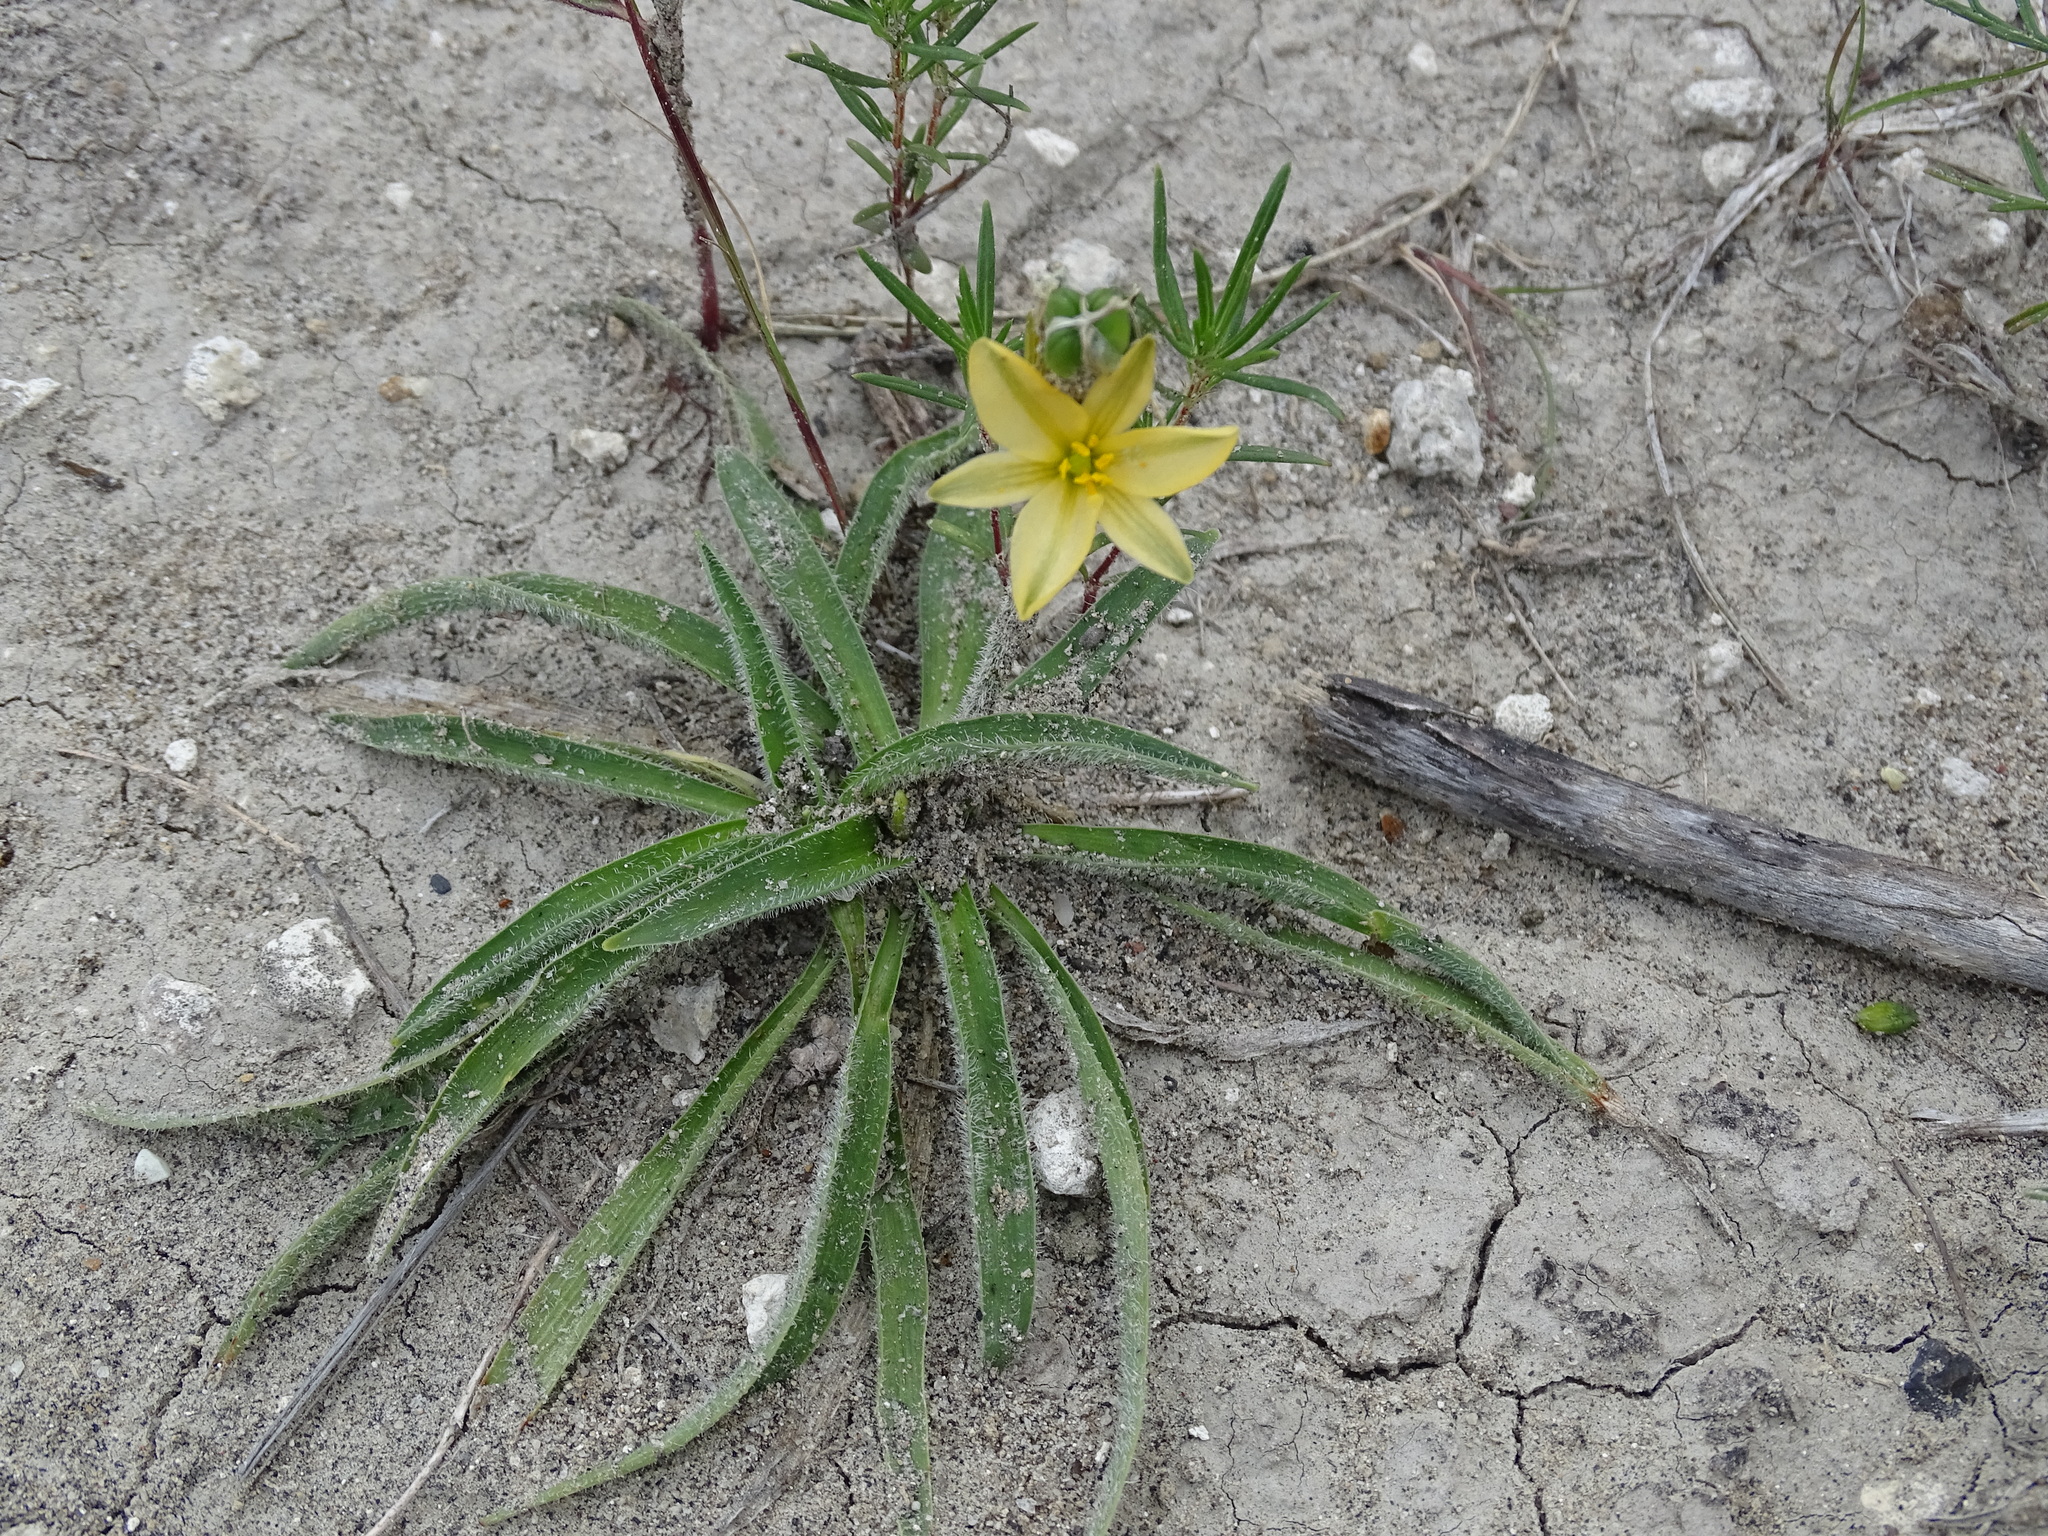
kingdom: Plantae
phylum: Tracheophyta
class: Liliopsida
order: Asparagales
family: Asparagaceae
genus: Echeandia
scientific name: Echeandia vestita
